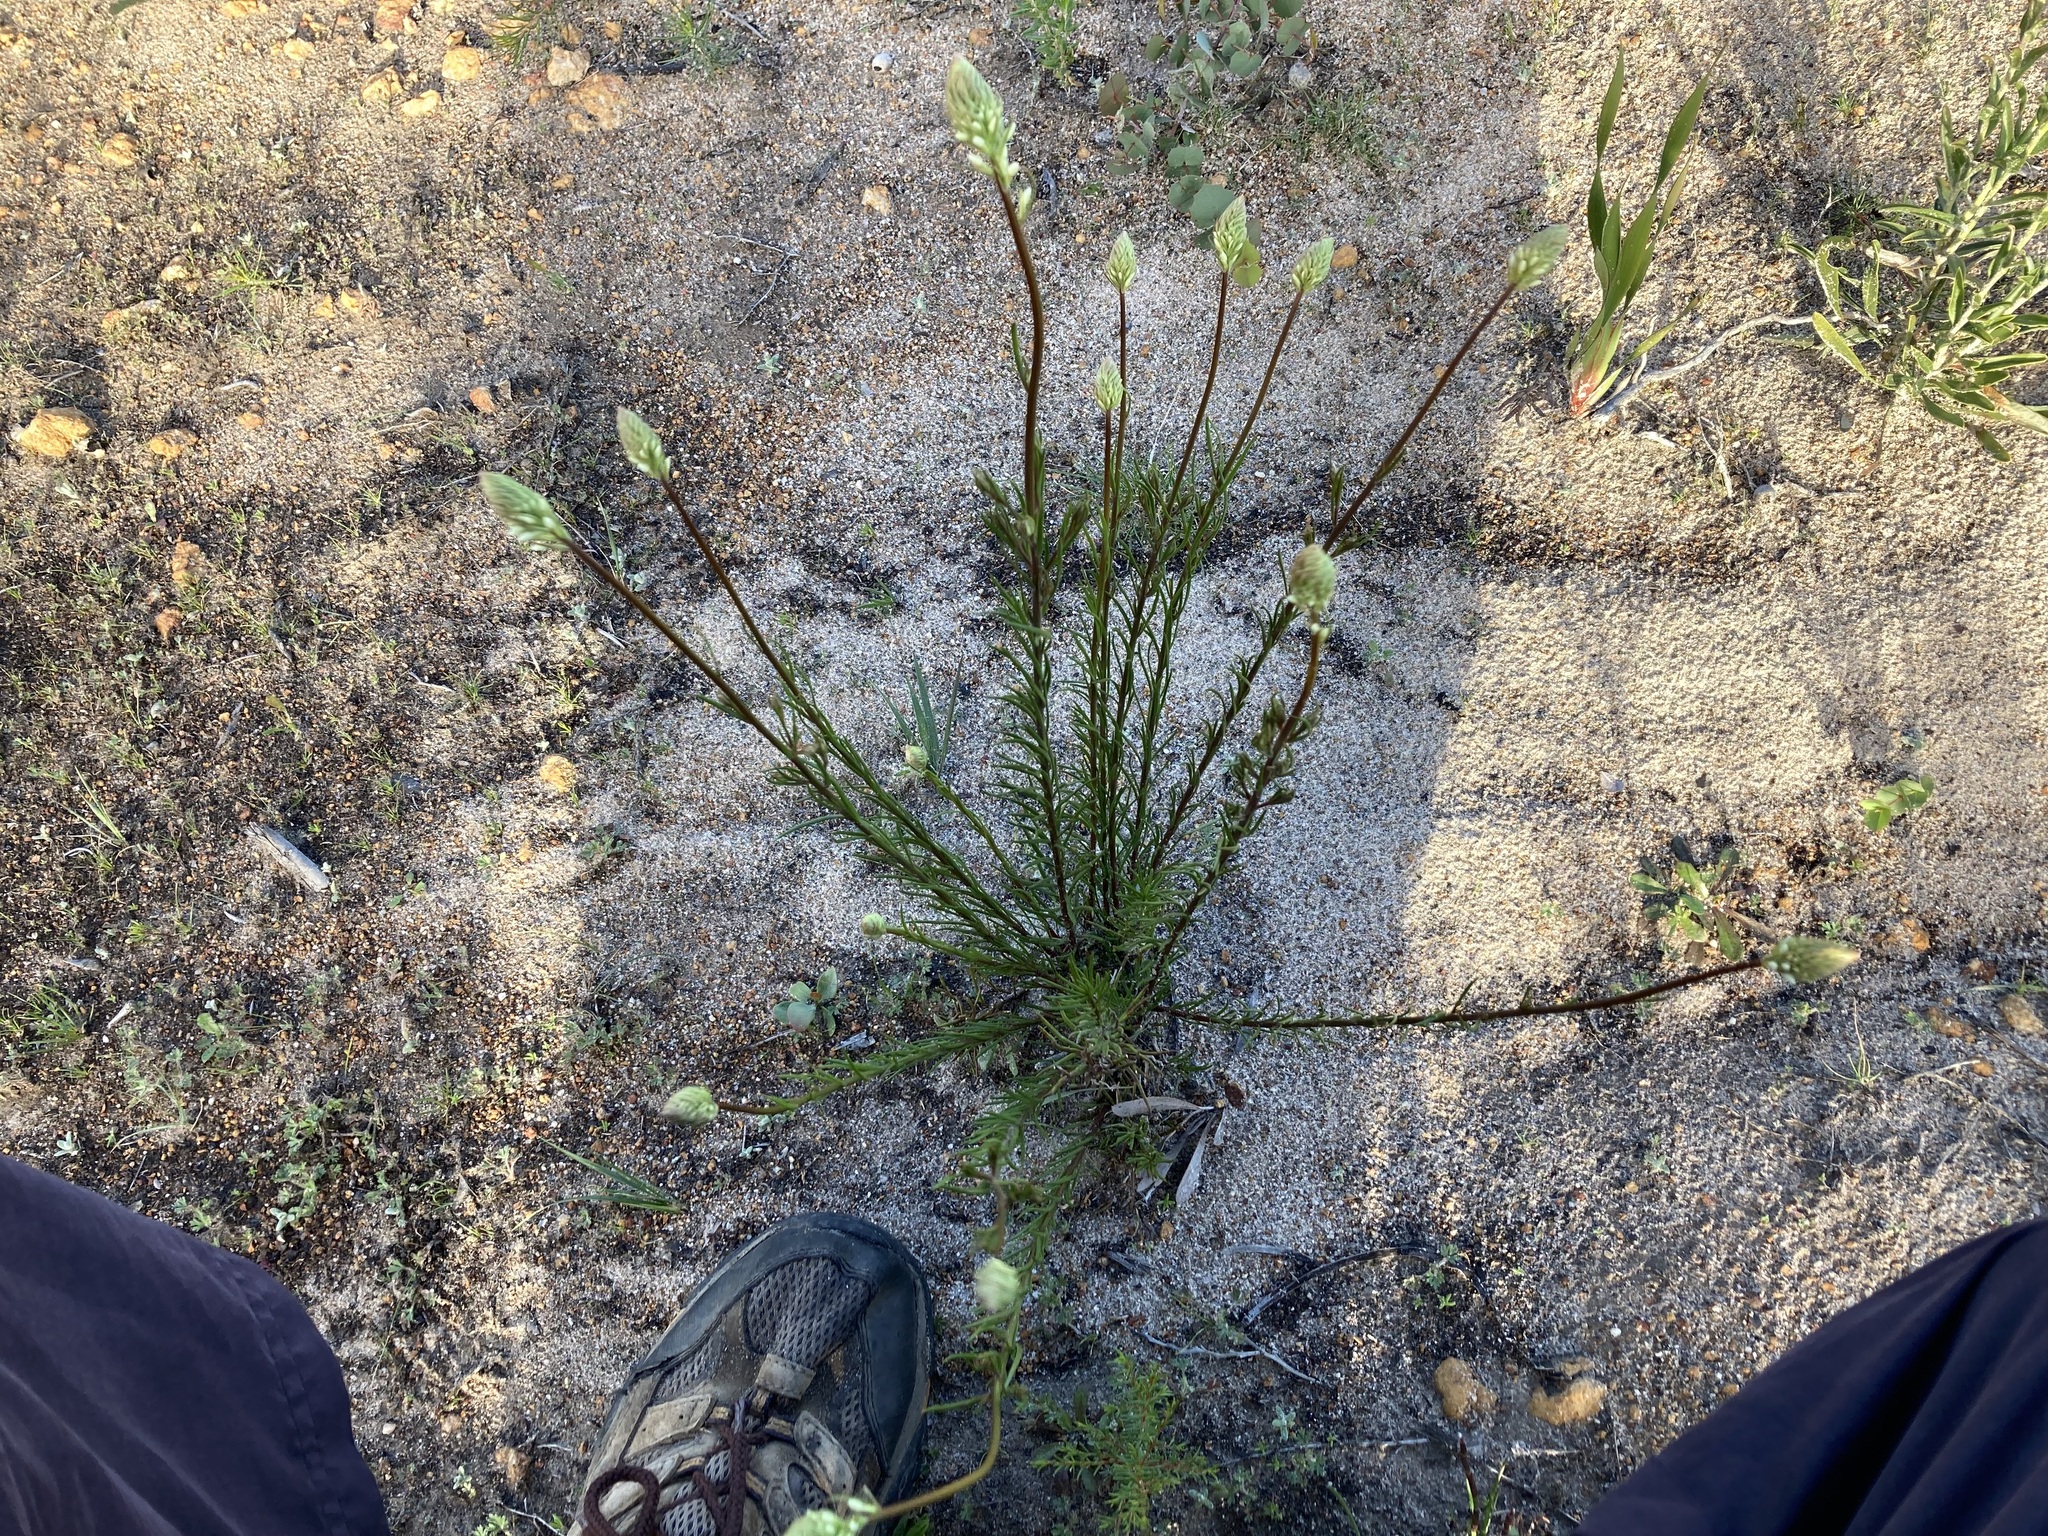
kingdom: Plantae
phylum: Tracheophyta
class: Magnoliopsida
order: Celastrales
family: Celastraceae
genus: Stackhousia
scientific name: Stackhousia monogyna
